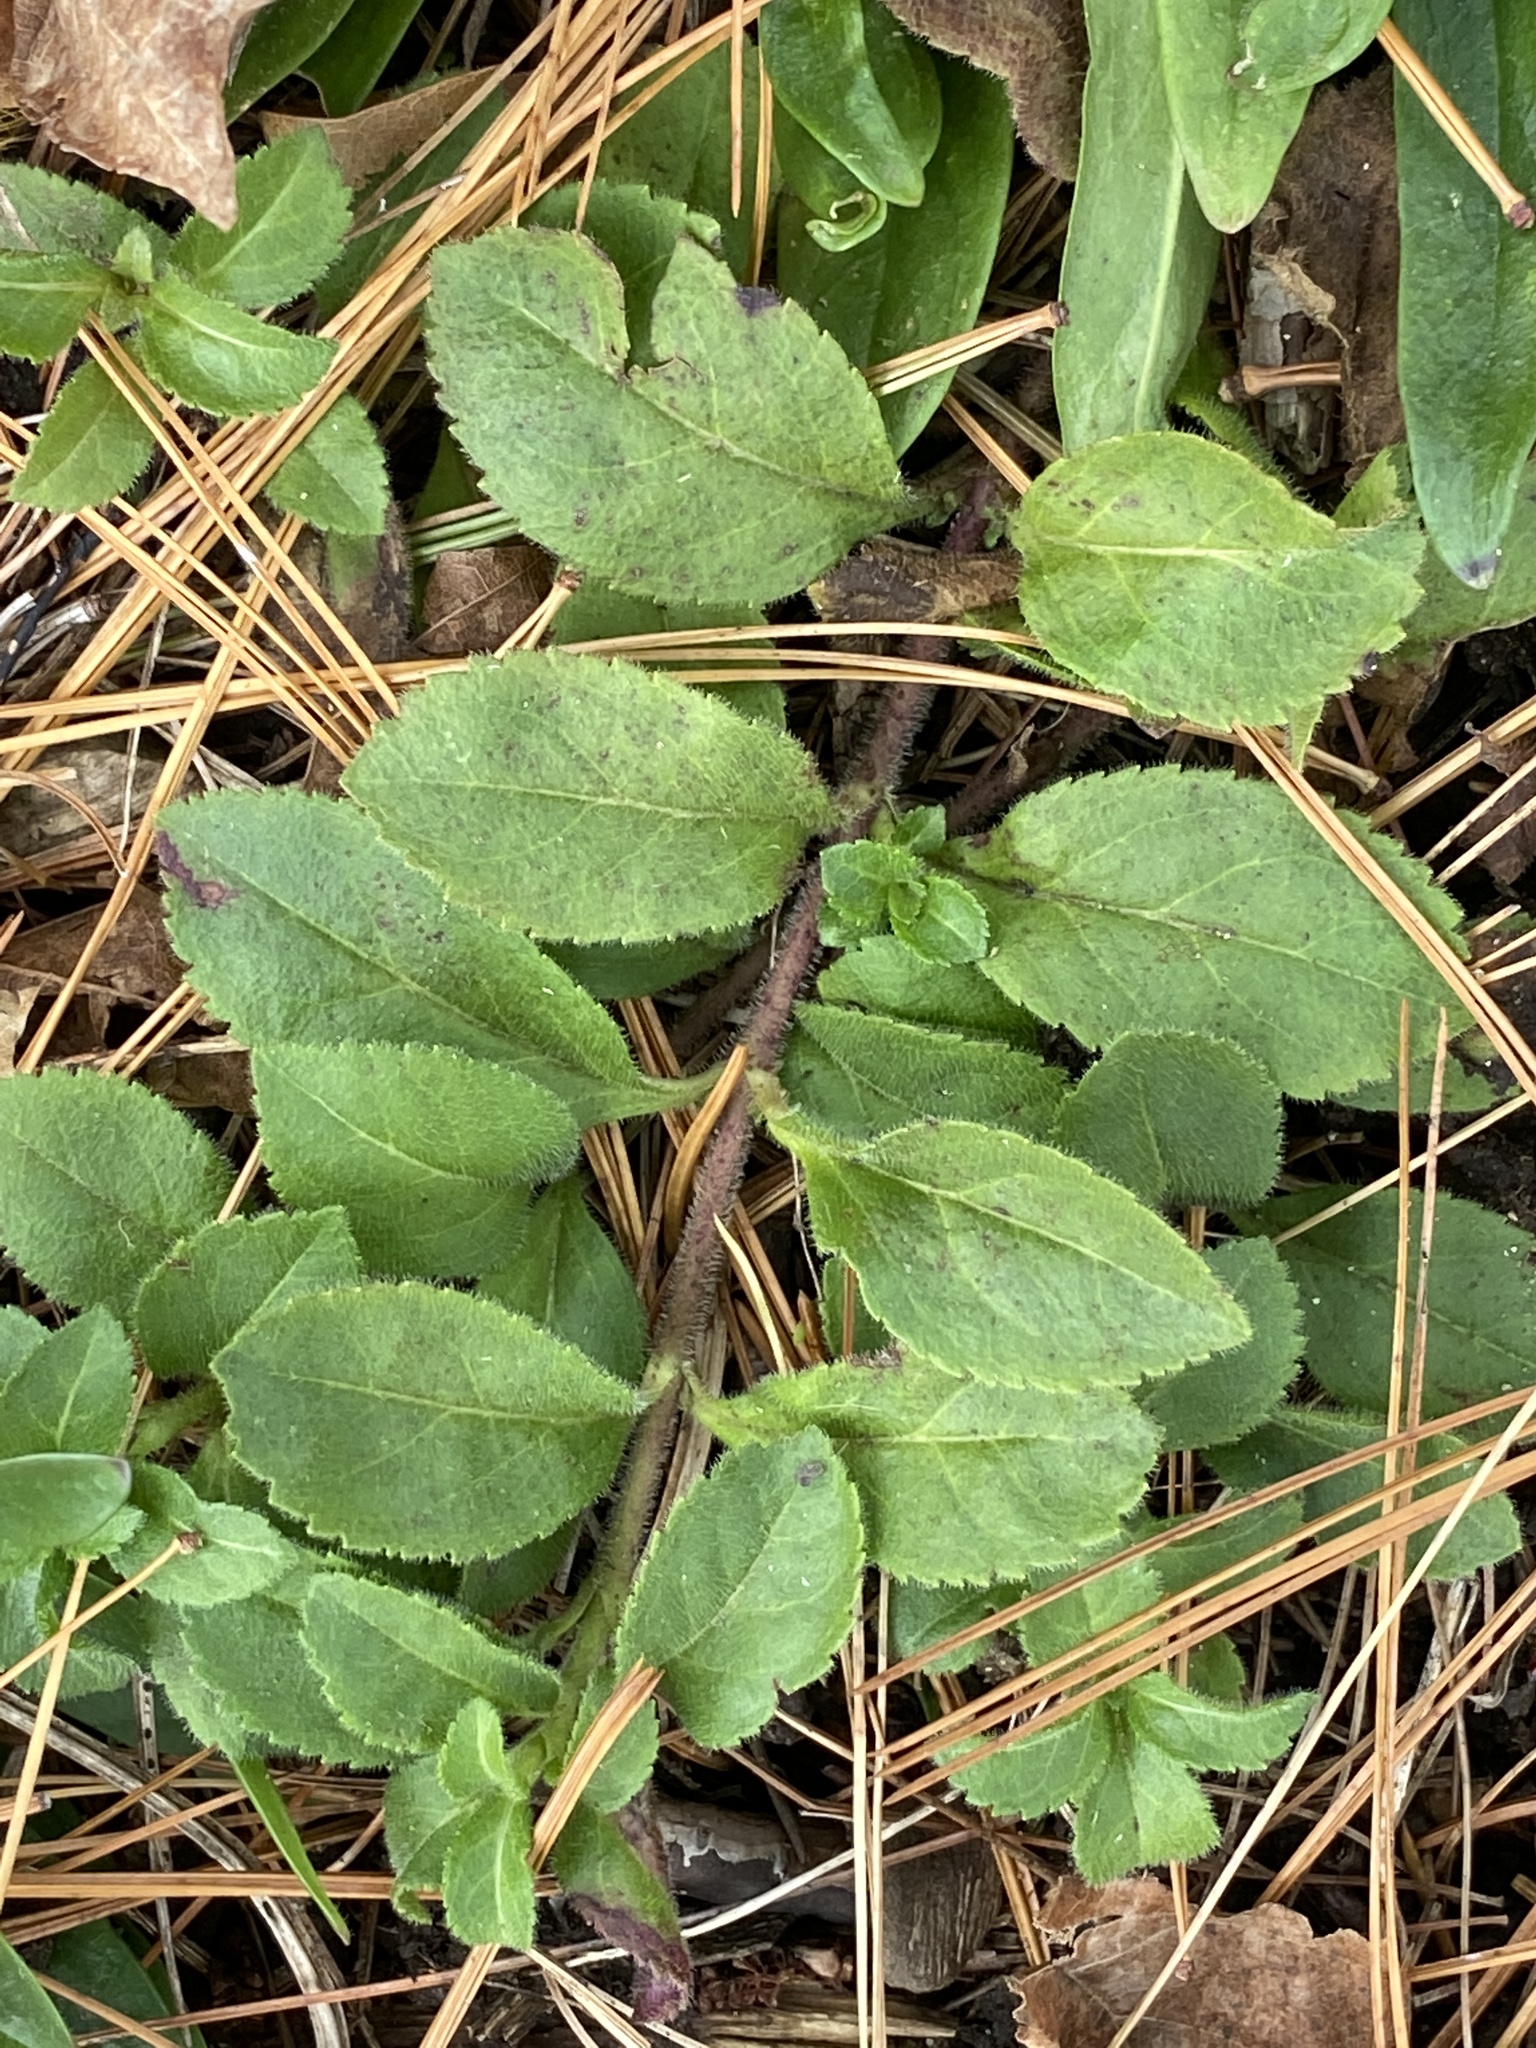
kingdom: Plantae
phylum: Tracheophyta
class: Magnoliopsida
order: Lamiales
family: Plantaginaceae
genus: Veronica
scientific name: Veronica officinalis
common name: Common speedwell
